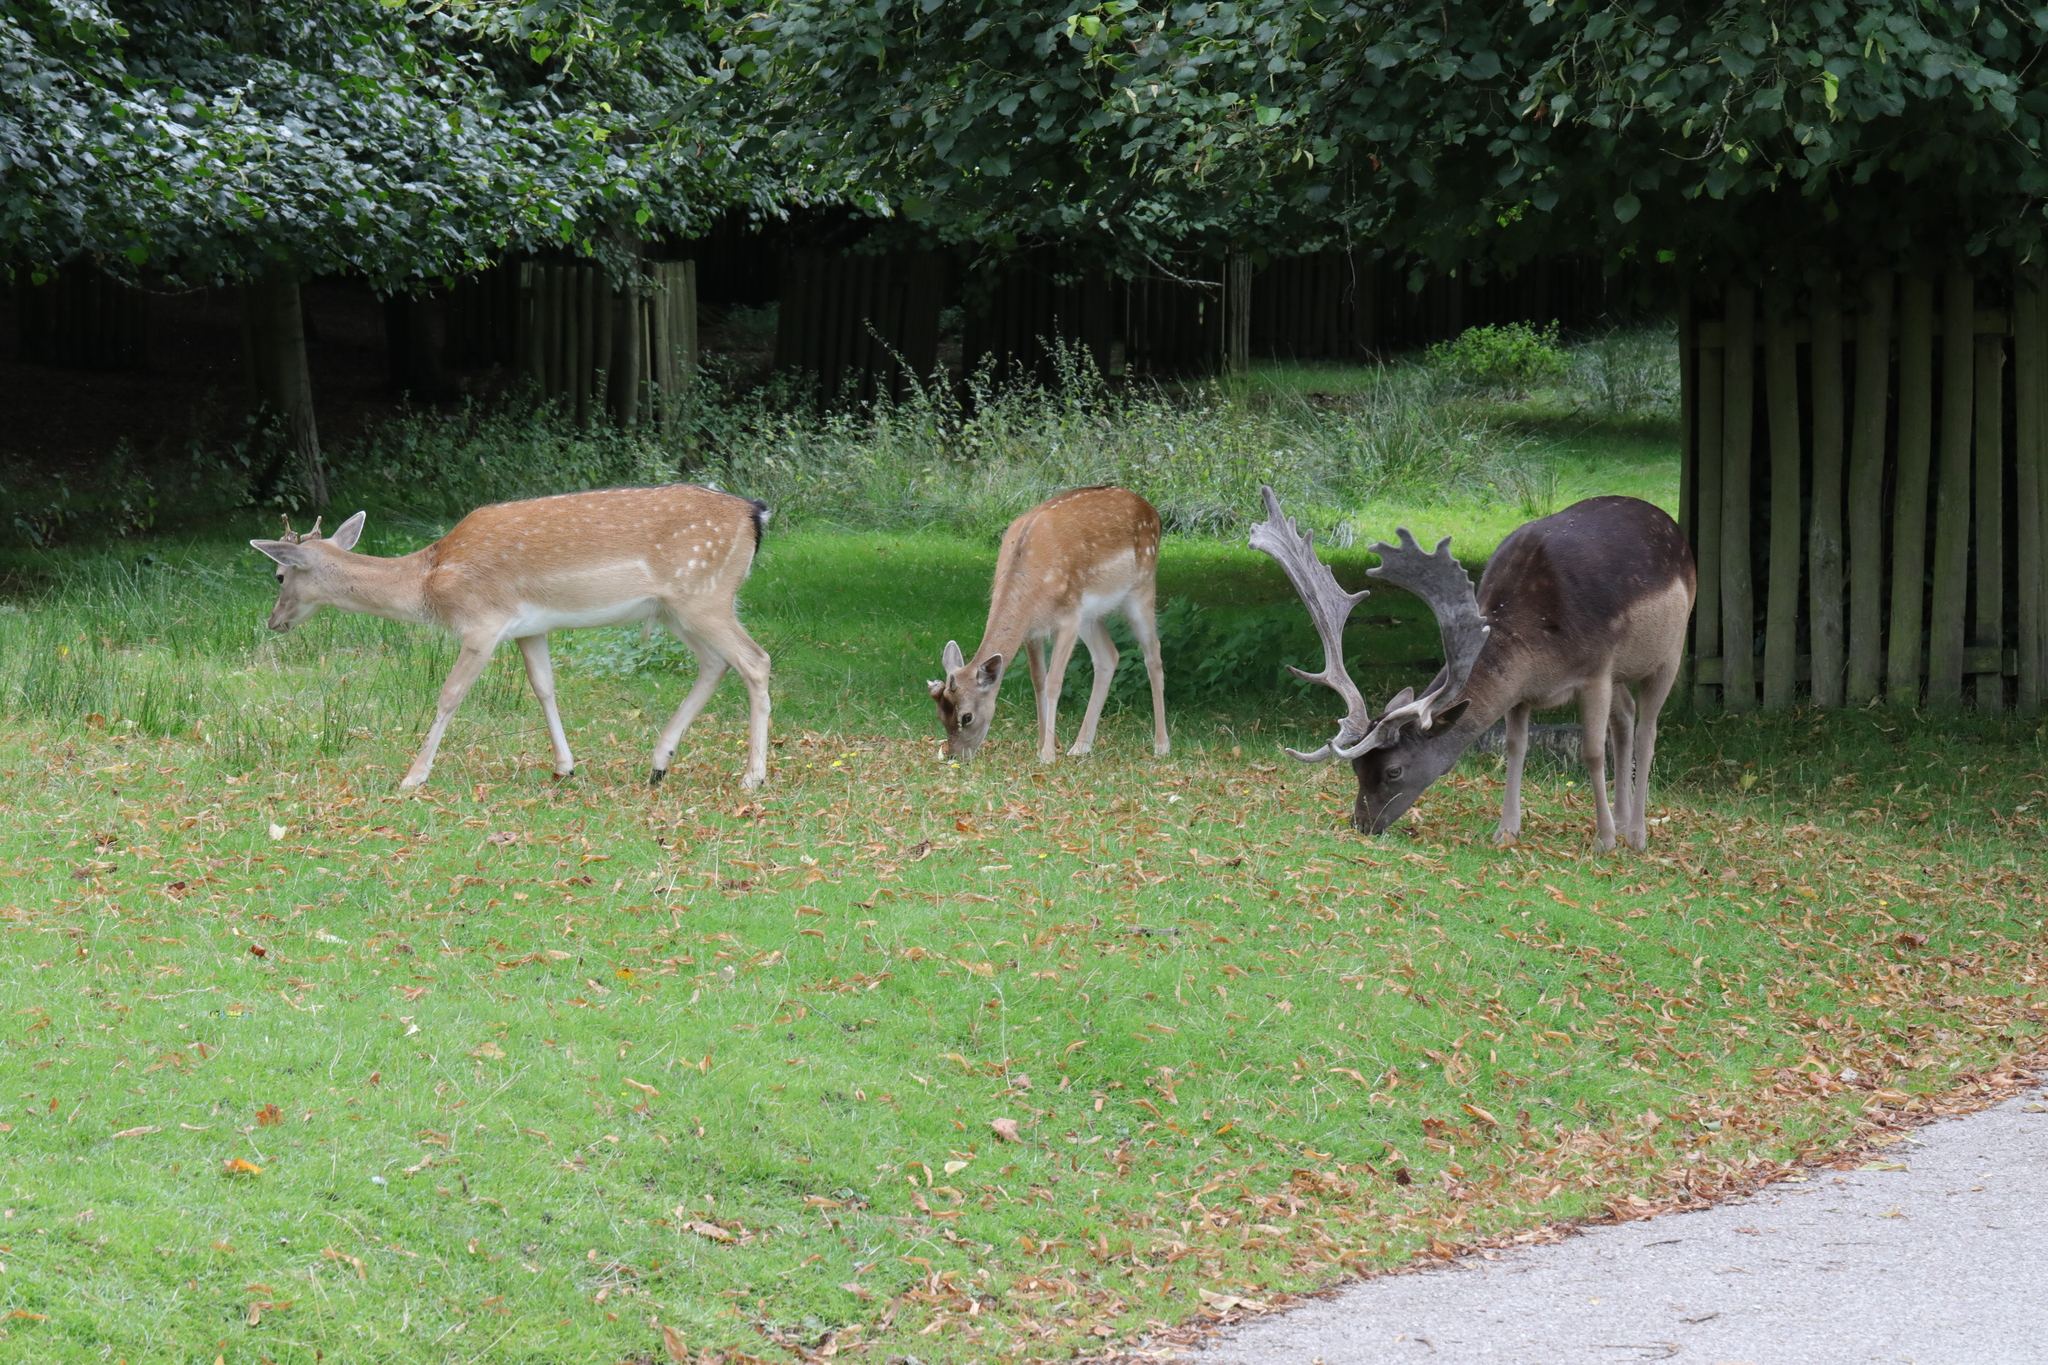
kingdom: Animalia
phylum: Chordata
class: Mammalia
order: Artiodactyla
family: Cervidae
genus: Dama
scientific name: Dama dama
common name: Fallow deer
